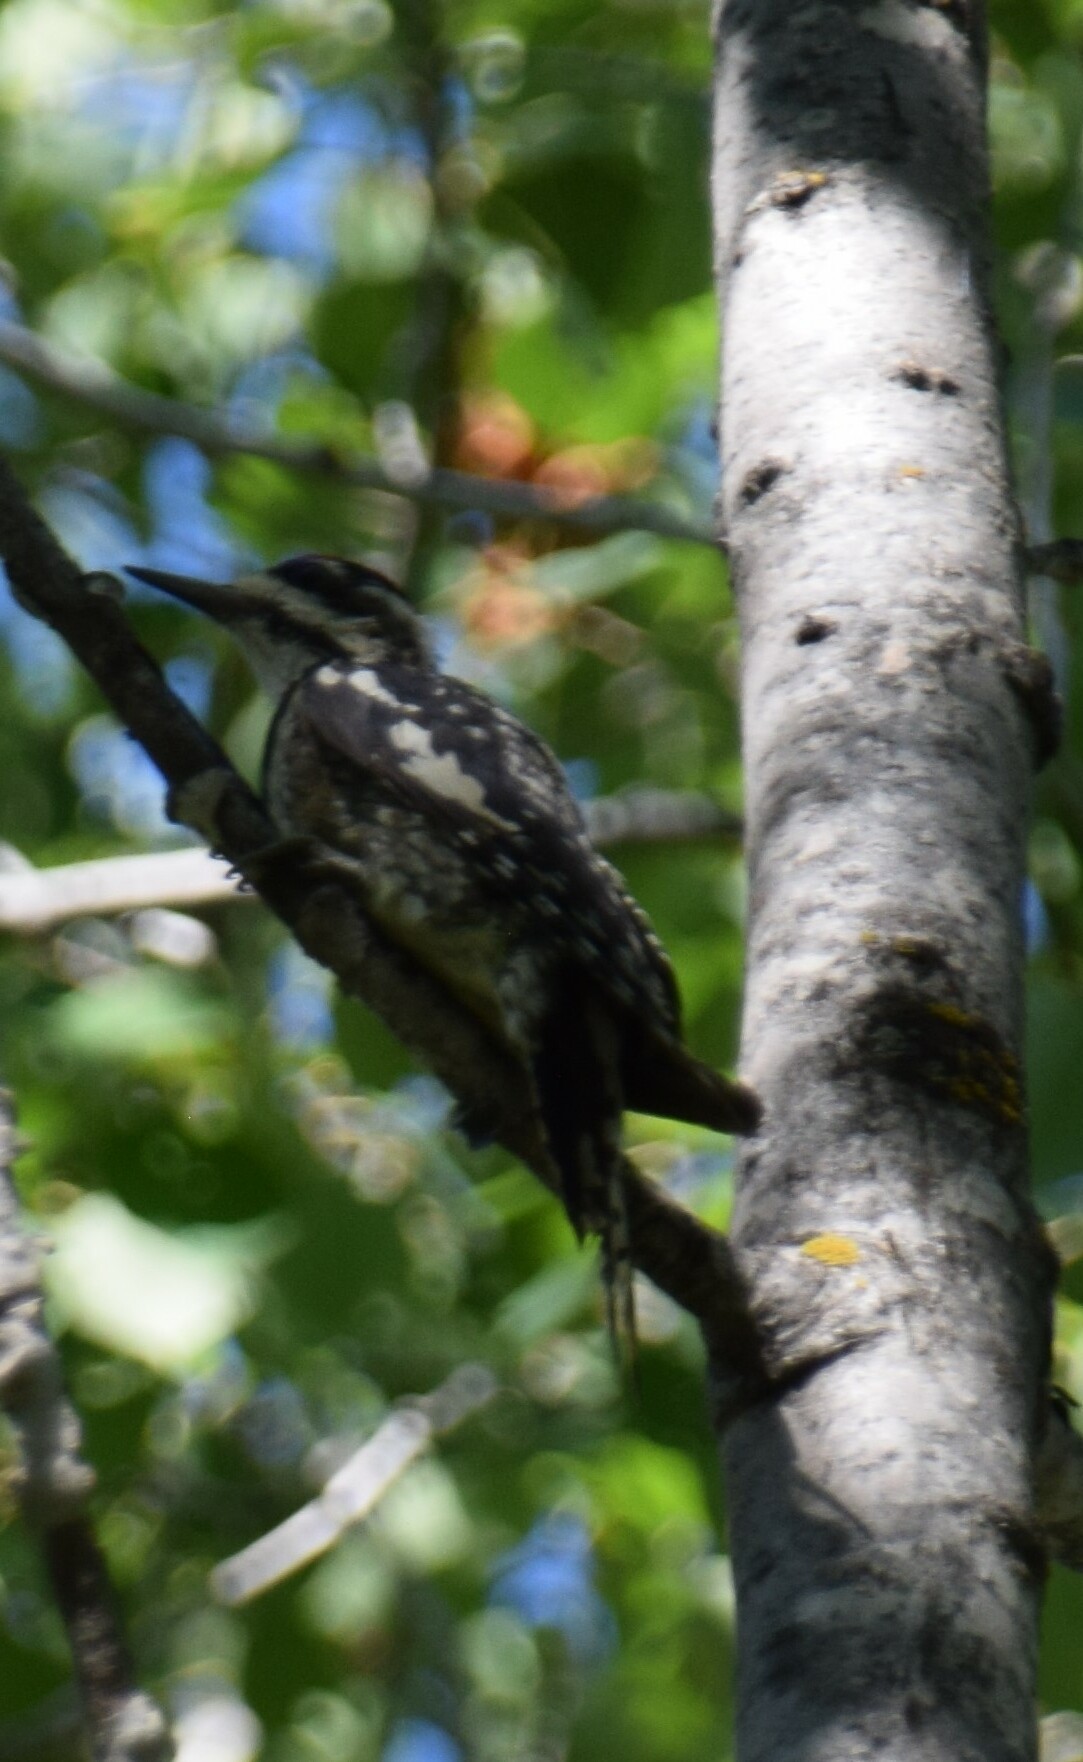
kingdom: Animalia
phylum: Chordata
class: Aves
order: Piciformes
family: Picidae
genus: Sphyrapicus
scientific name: Sphyrapicus varius
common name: Yellow-bellied sapsucker
